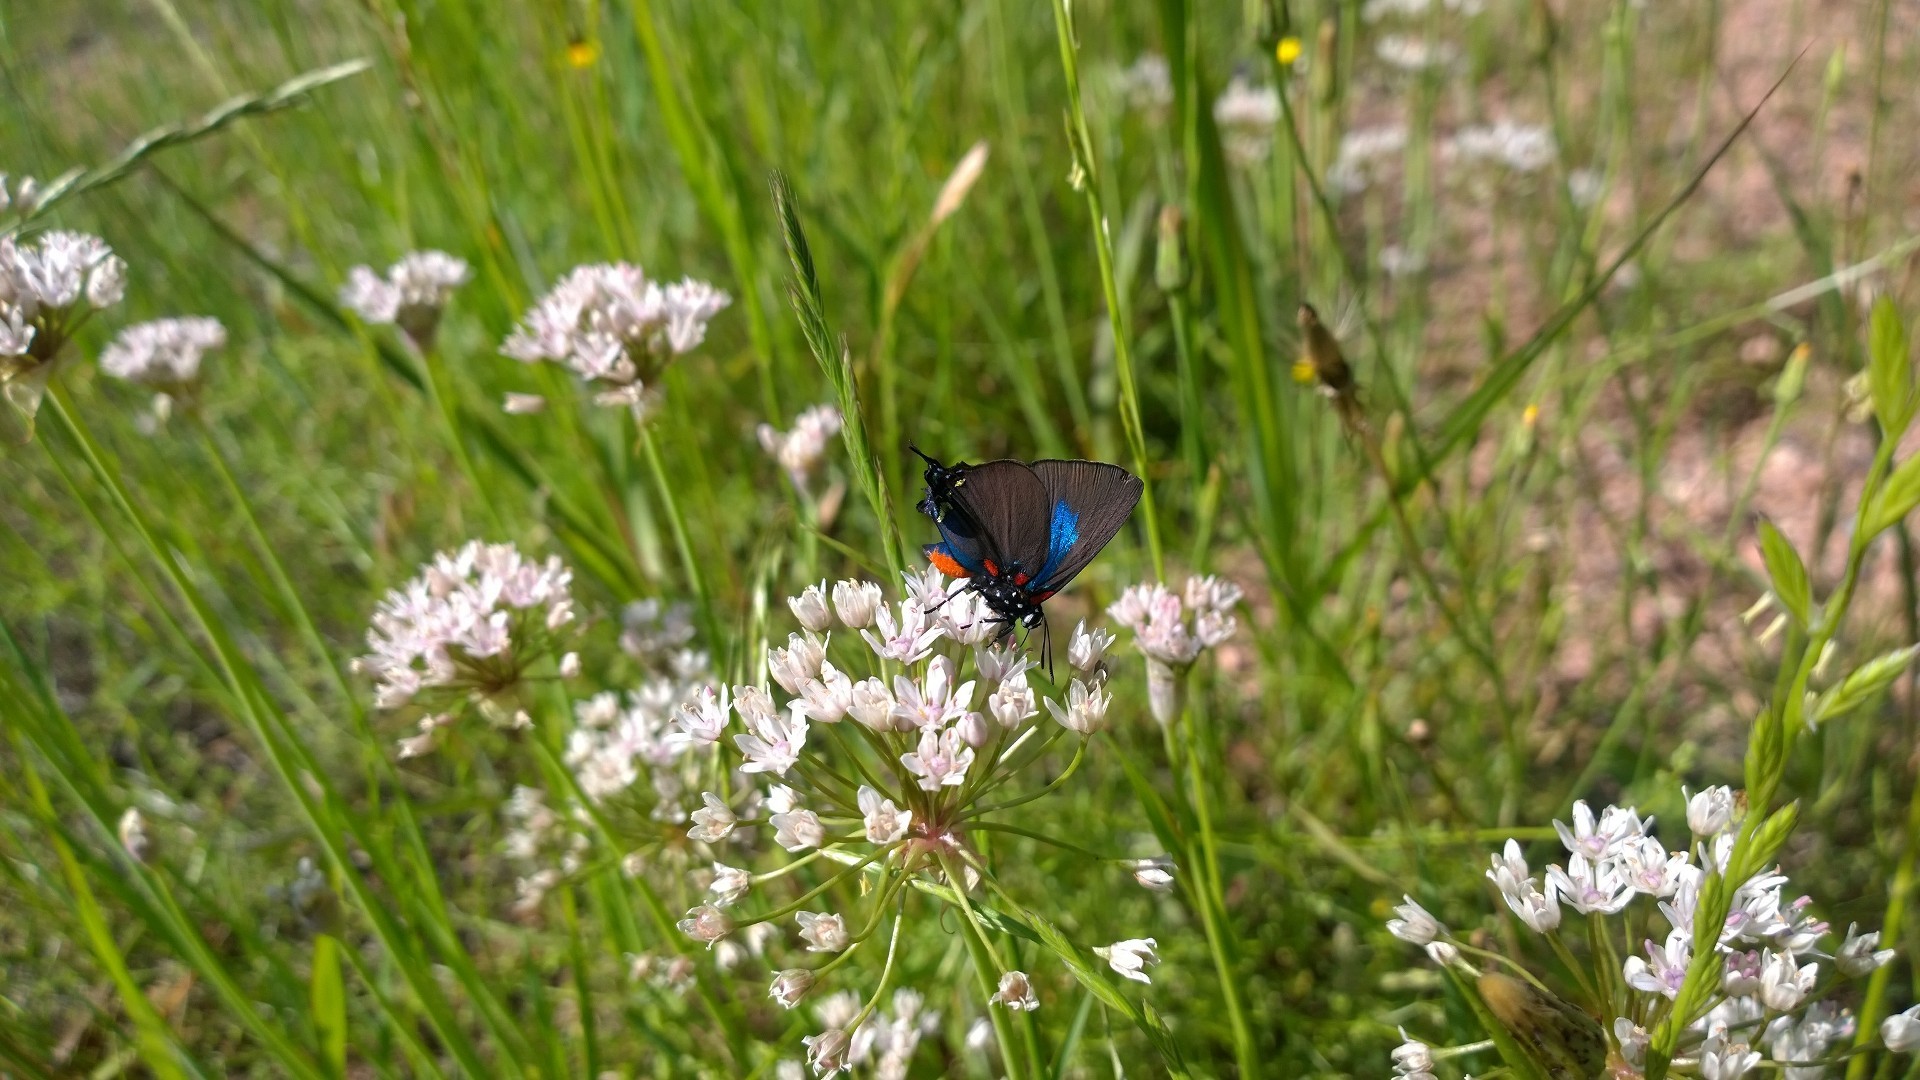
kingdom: Animalia
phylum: Arthropoda
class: Insecta
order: Lepidoptera
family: Lycaenidae
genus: Atlides
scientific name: Atlides halesus
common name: Great purple hairstreak
